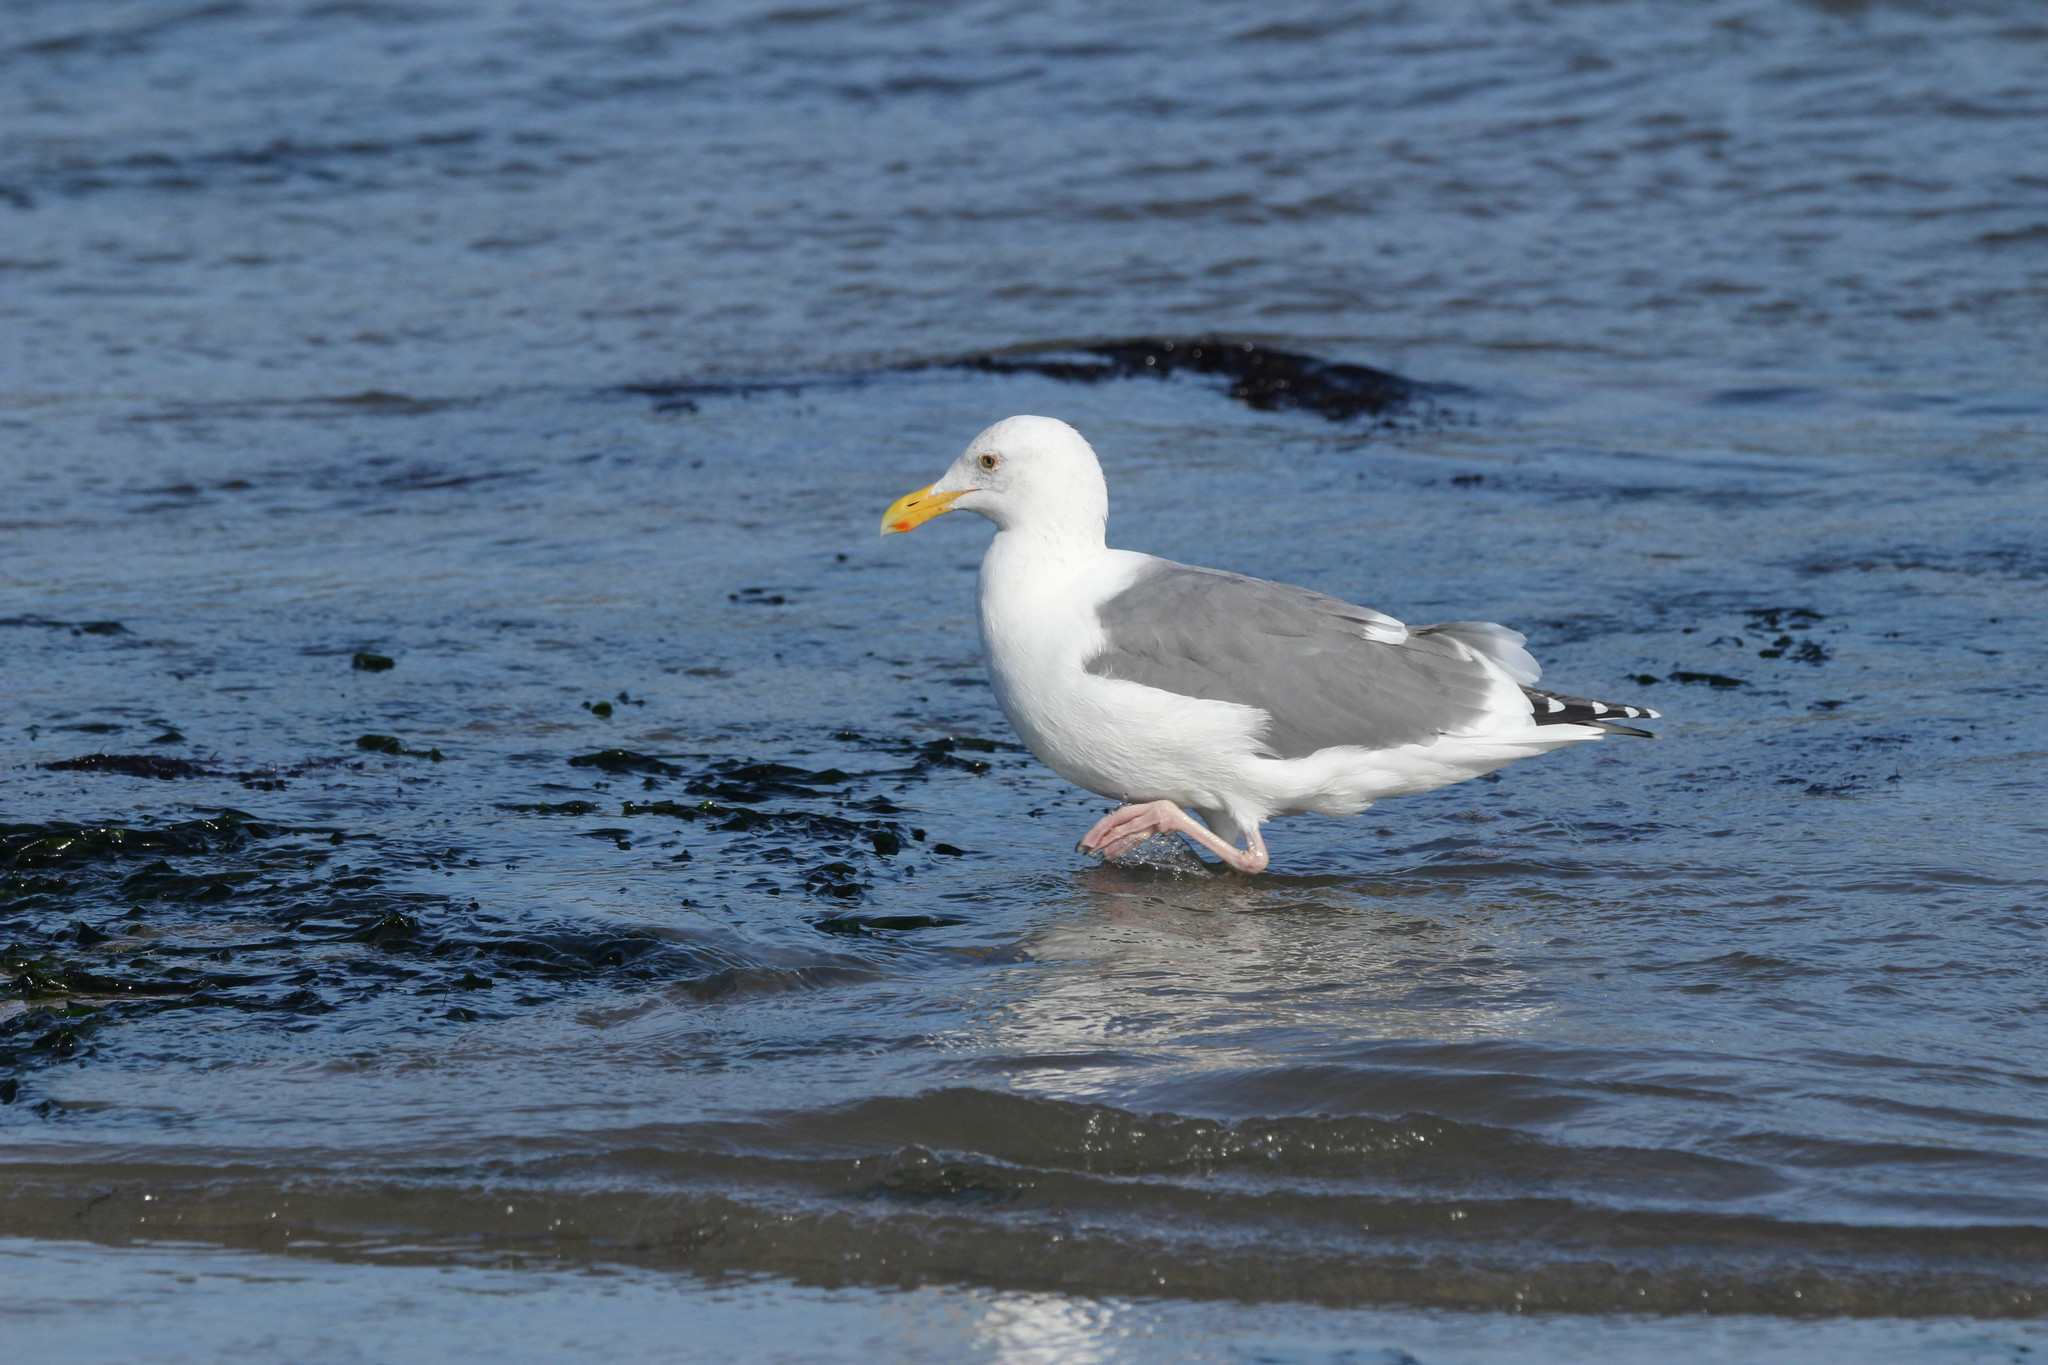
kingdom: Animalia
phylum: Chordata
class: Aves
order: Charadriiformes
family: Laridae
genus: Larus
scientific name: Larus occidentalis
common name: Western gull
